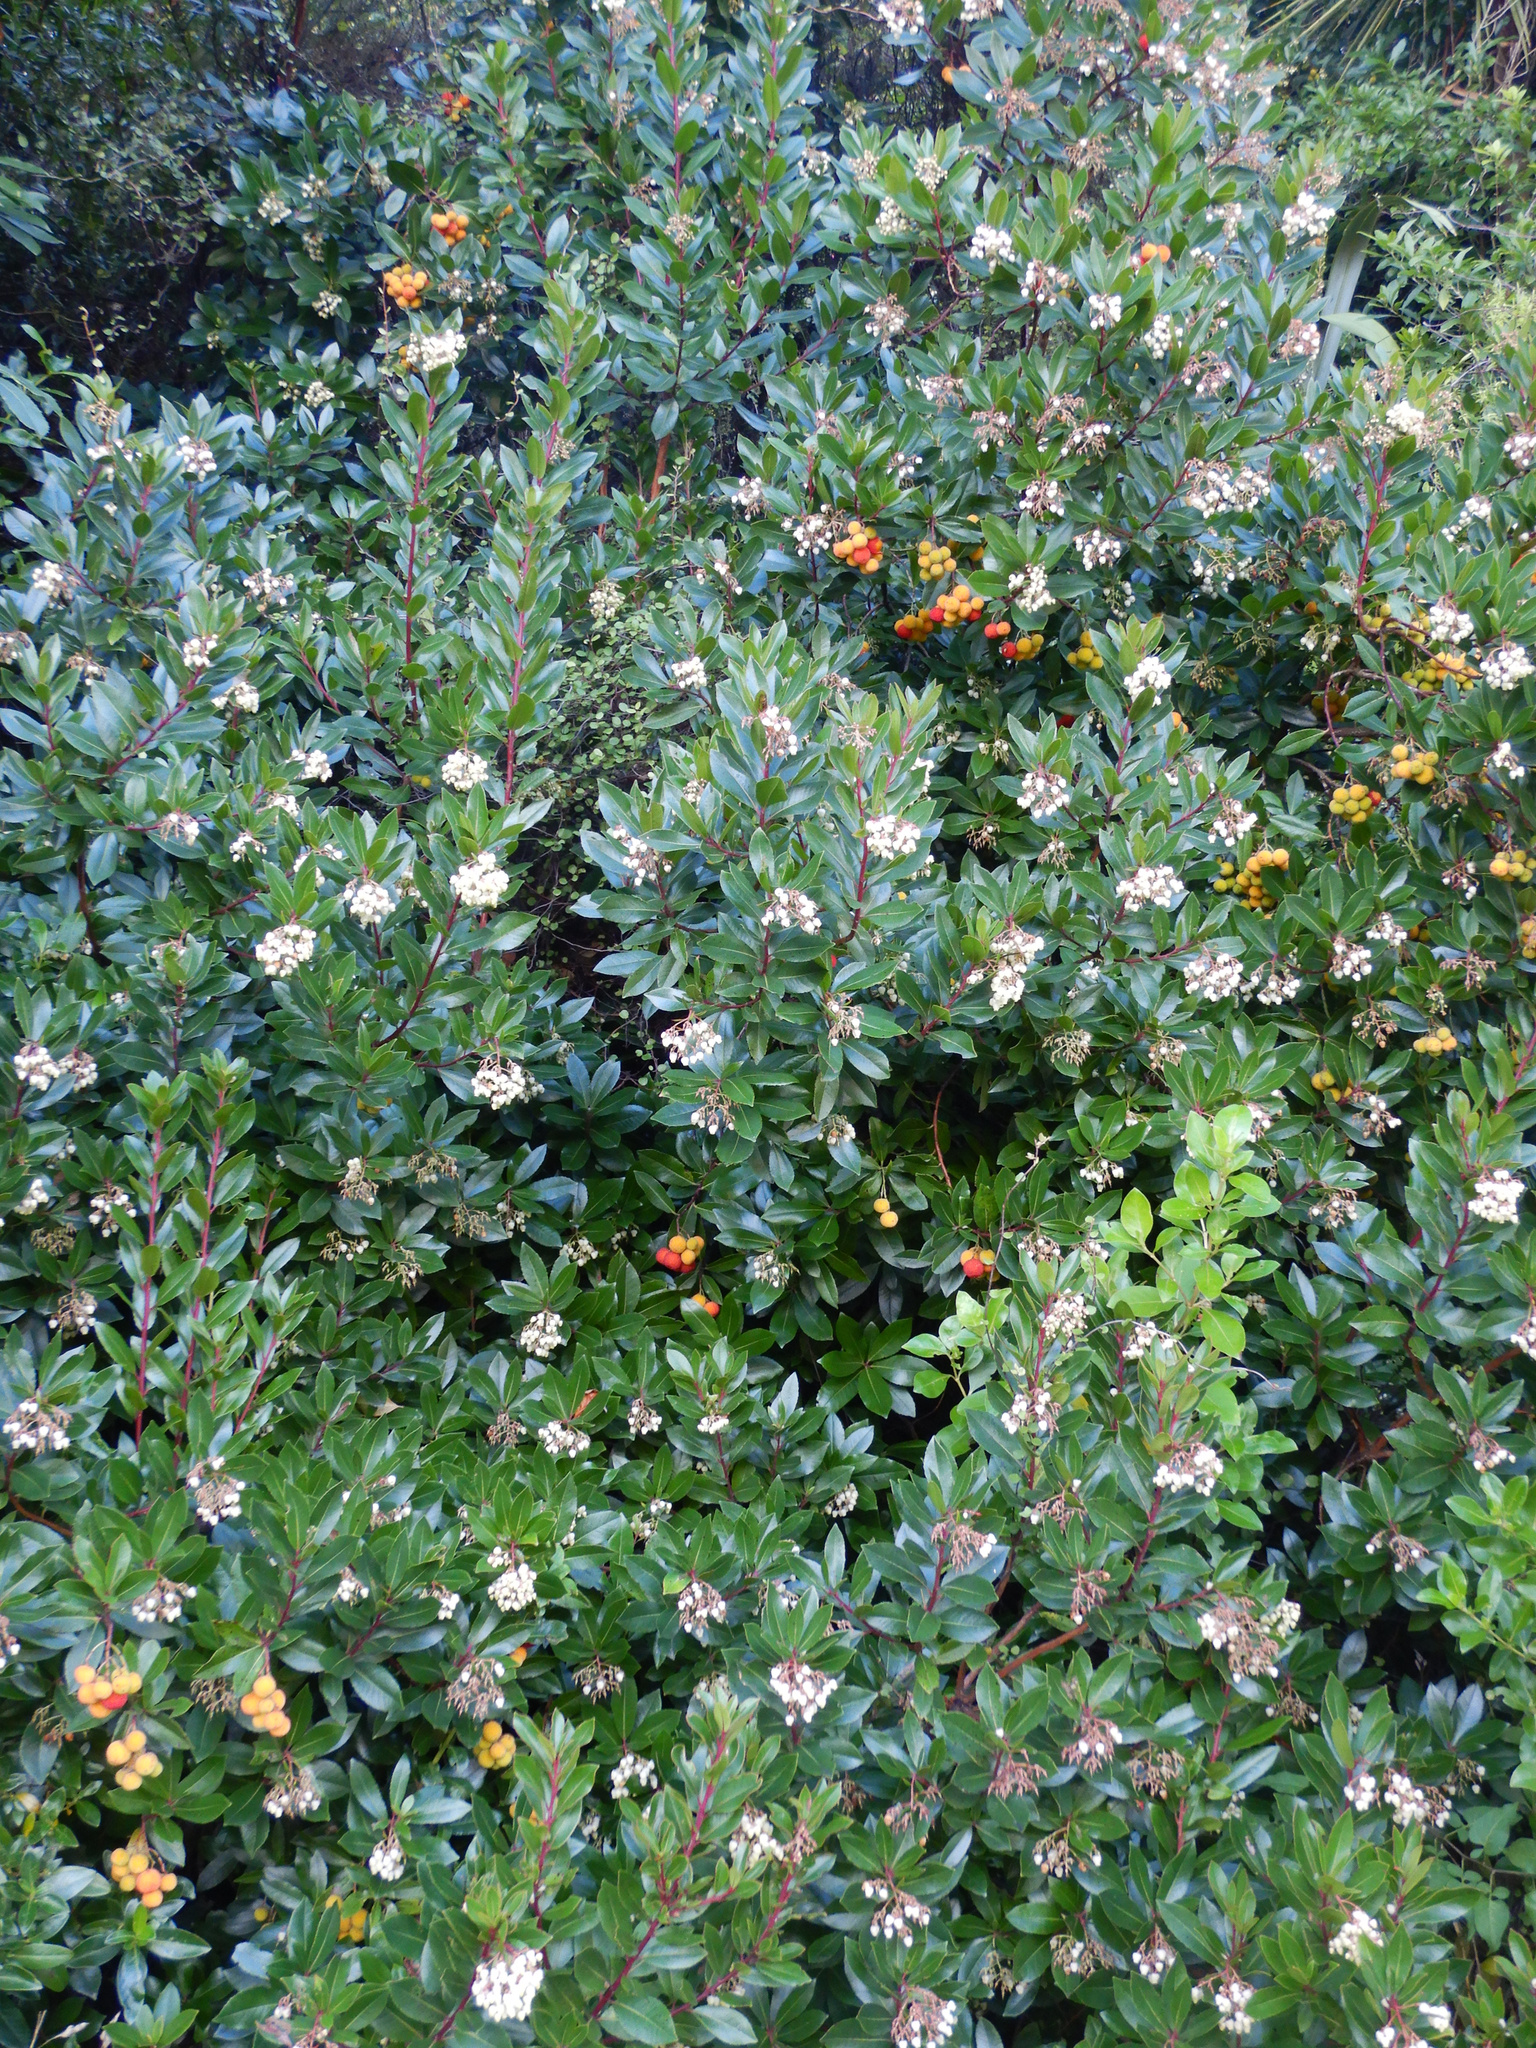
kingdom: Plantae
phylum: Tracheophyta
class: Magnoliopsida
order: Caryophyllales
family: Polygonaceae
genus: Muehlenbeckia
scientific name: Muehlenbeckia complexa
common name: Wireplant
